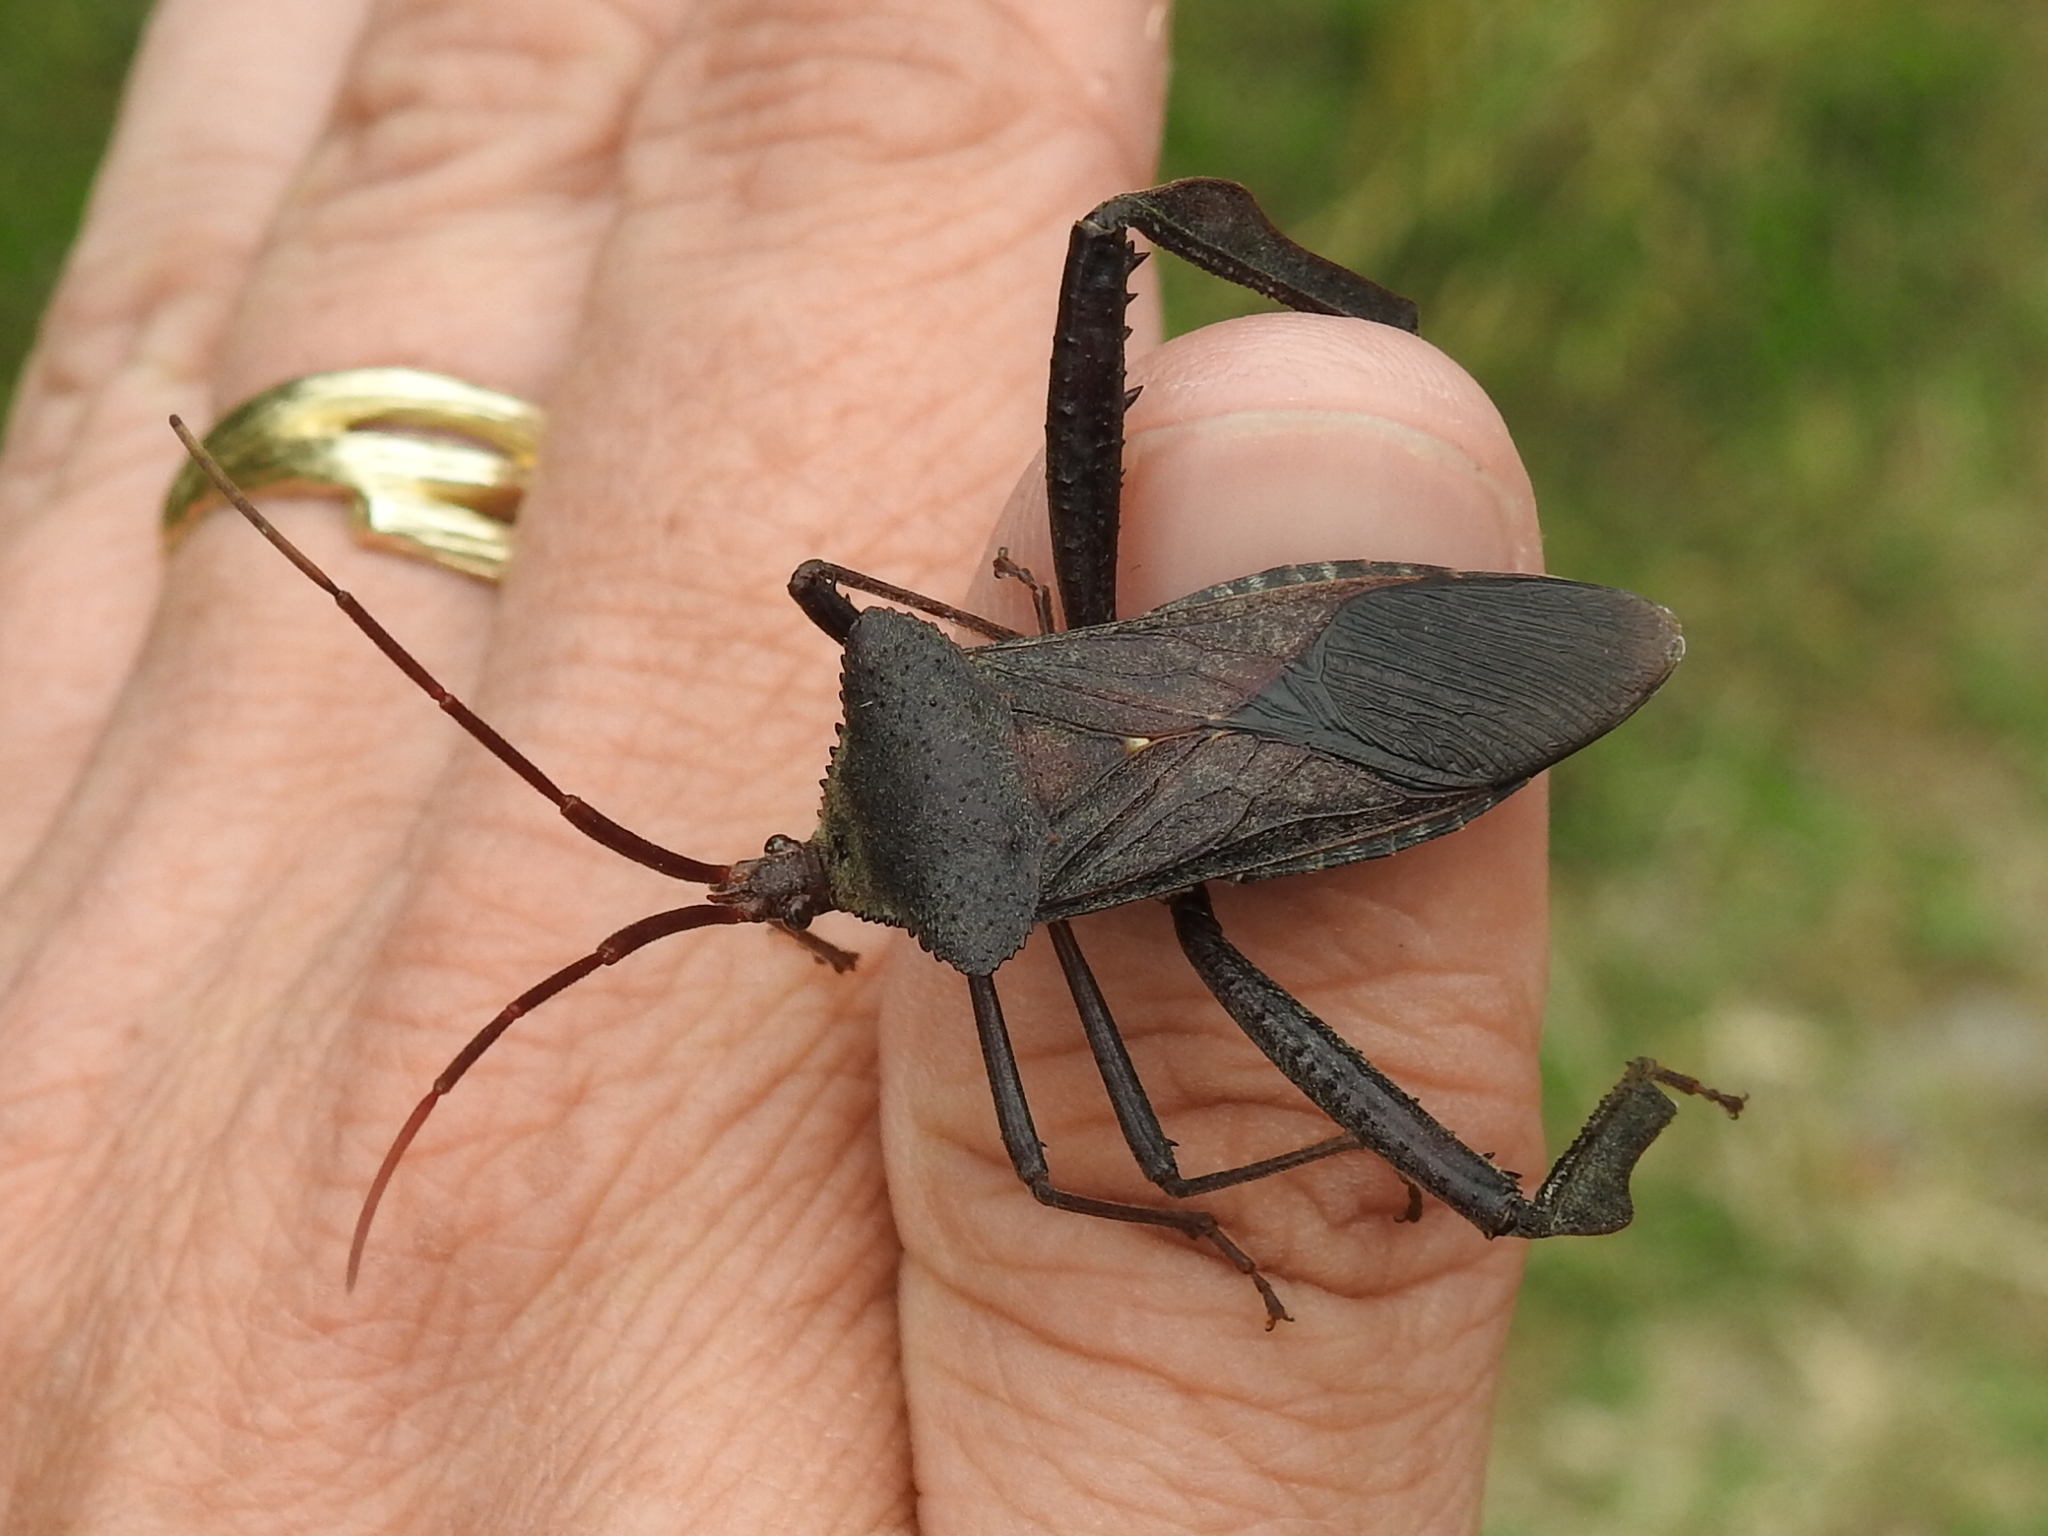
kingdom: Animalia
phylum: Arthropoda
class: Insecta
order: Hemiptera
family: Coreidae
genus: Acanthocephala
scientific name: Acanthocephala declivis
